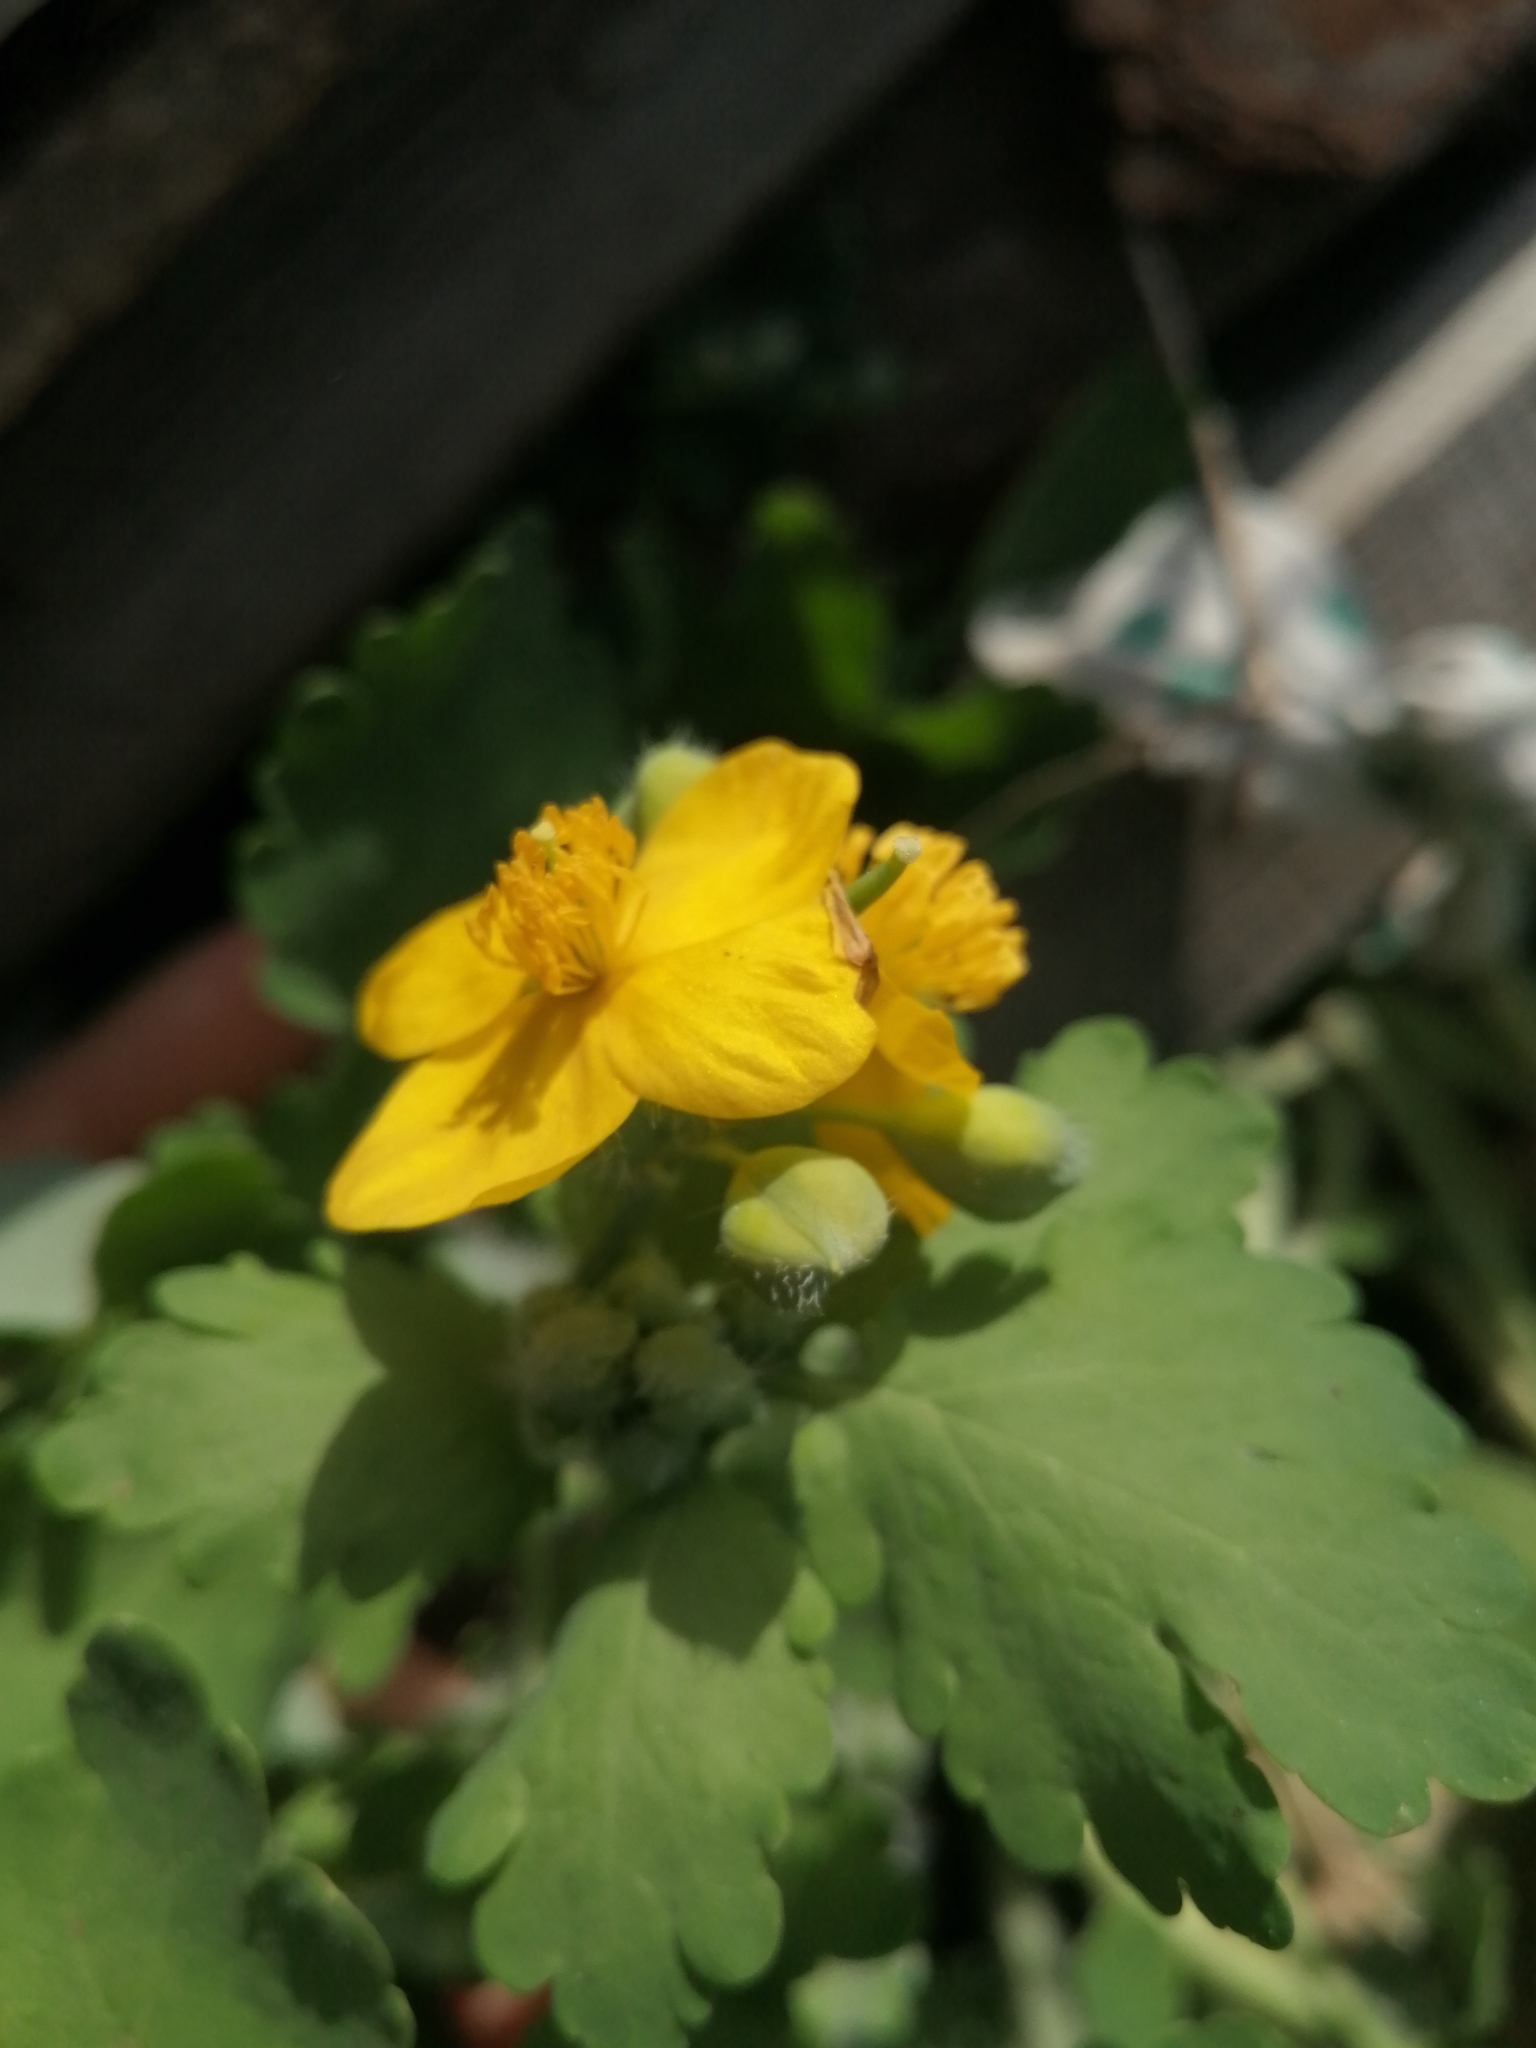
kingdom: Plantae
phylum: Tracheophyta
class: Magnoliopsida
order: Ranunculales
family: Papaveraceae
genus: Chelidonium
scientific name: Chelidonium majus
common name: Greater celandine
